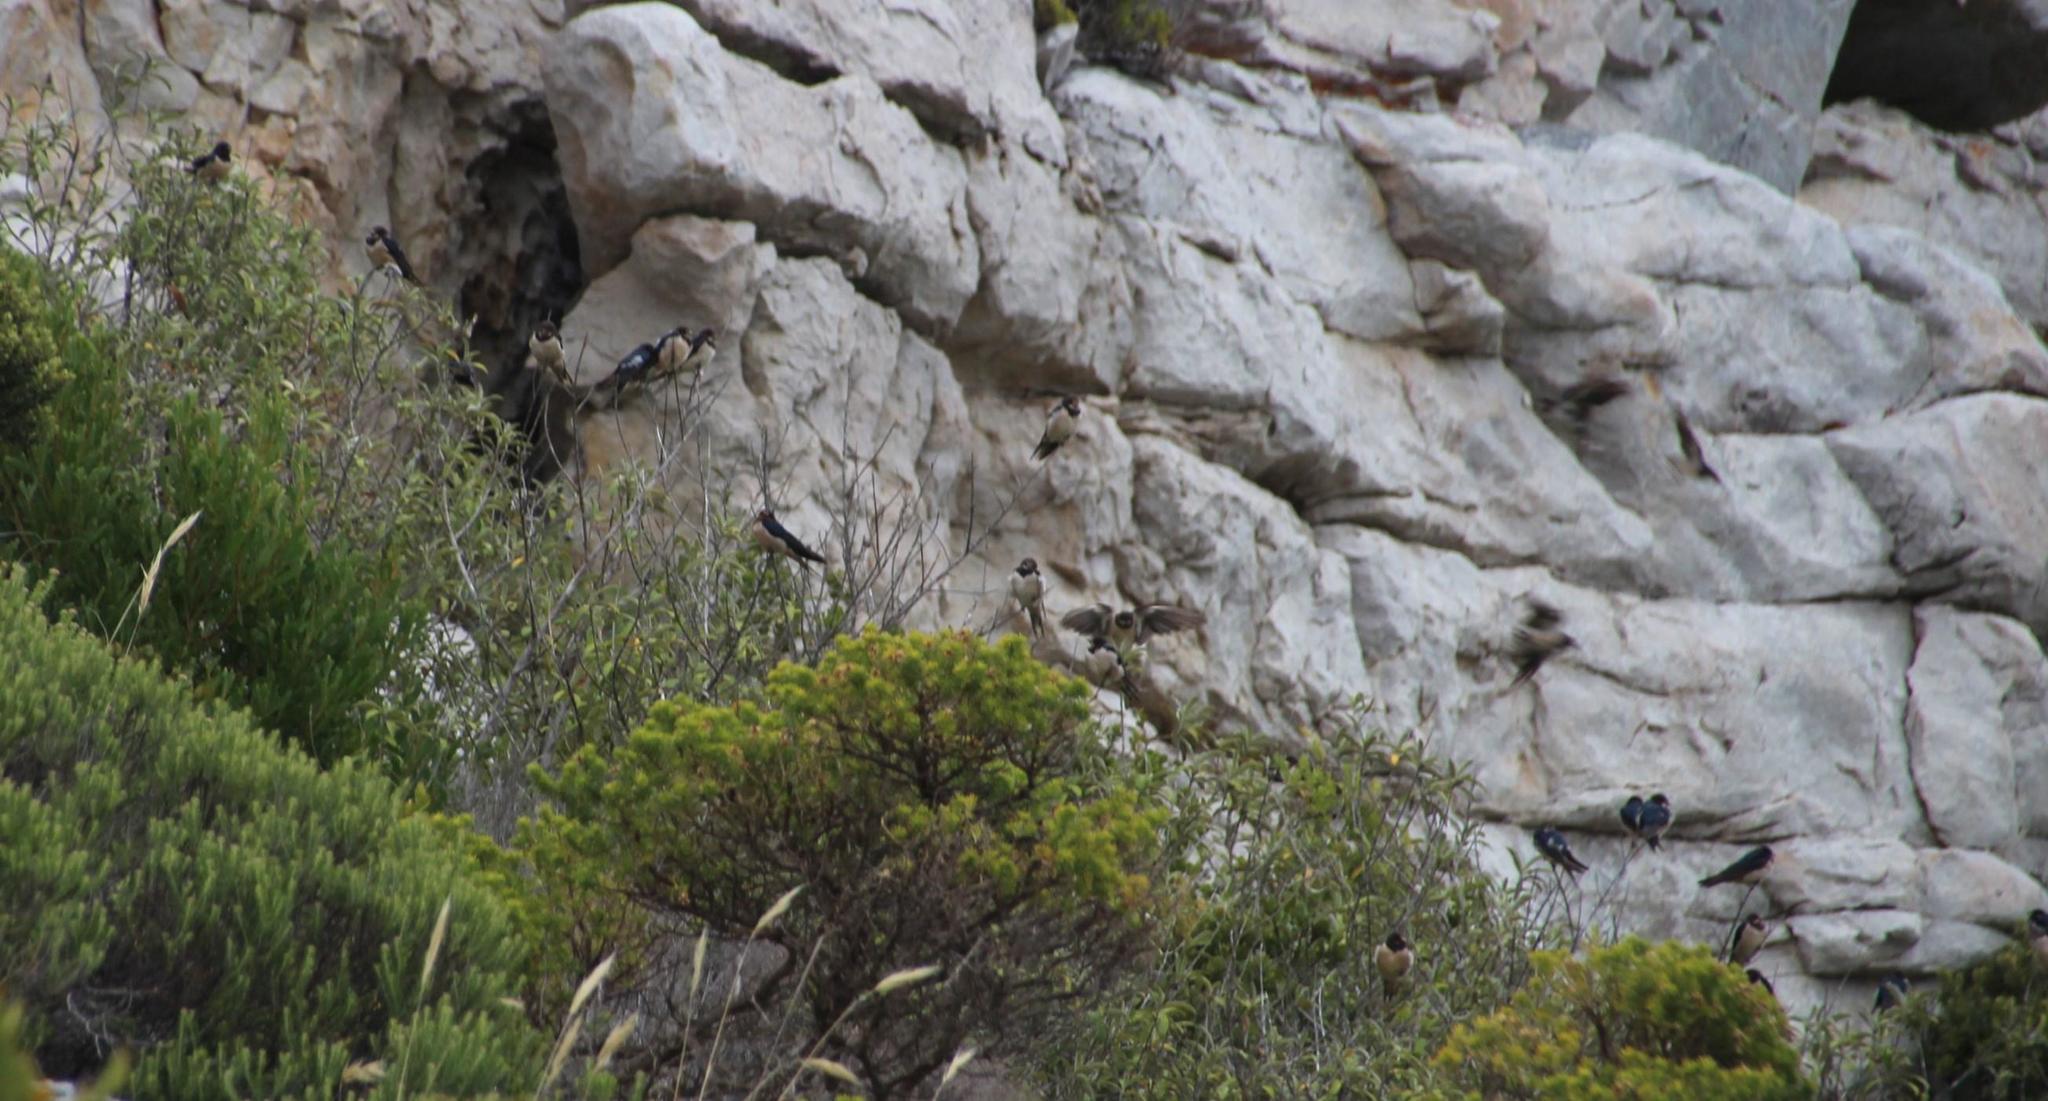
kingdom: Animalia
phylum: Chordata
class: Aves
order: Passeriformes
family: Hirundinidae
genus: Hirundo
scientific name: Hirundo rustica
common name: Barn swallow
